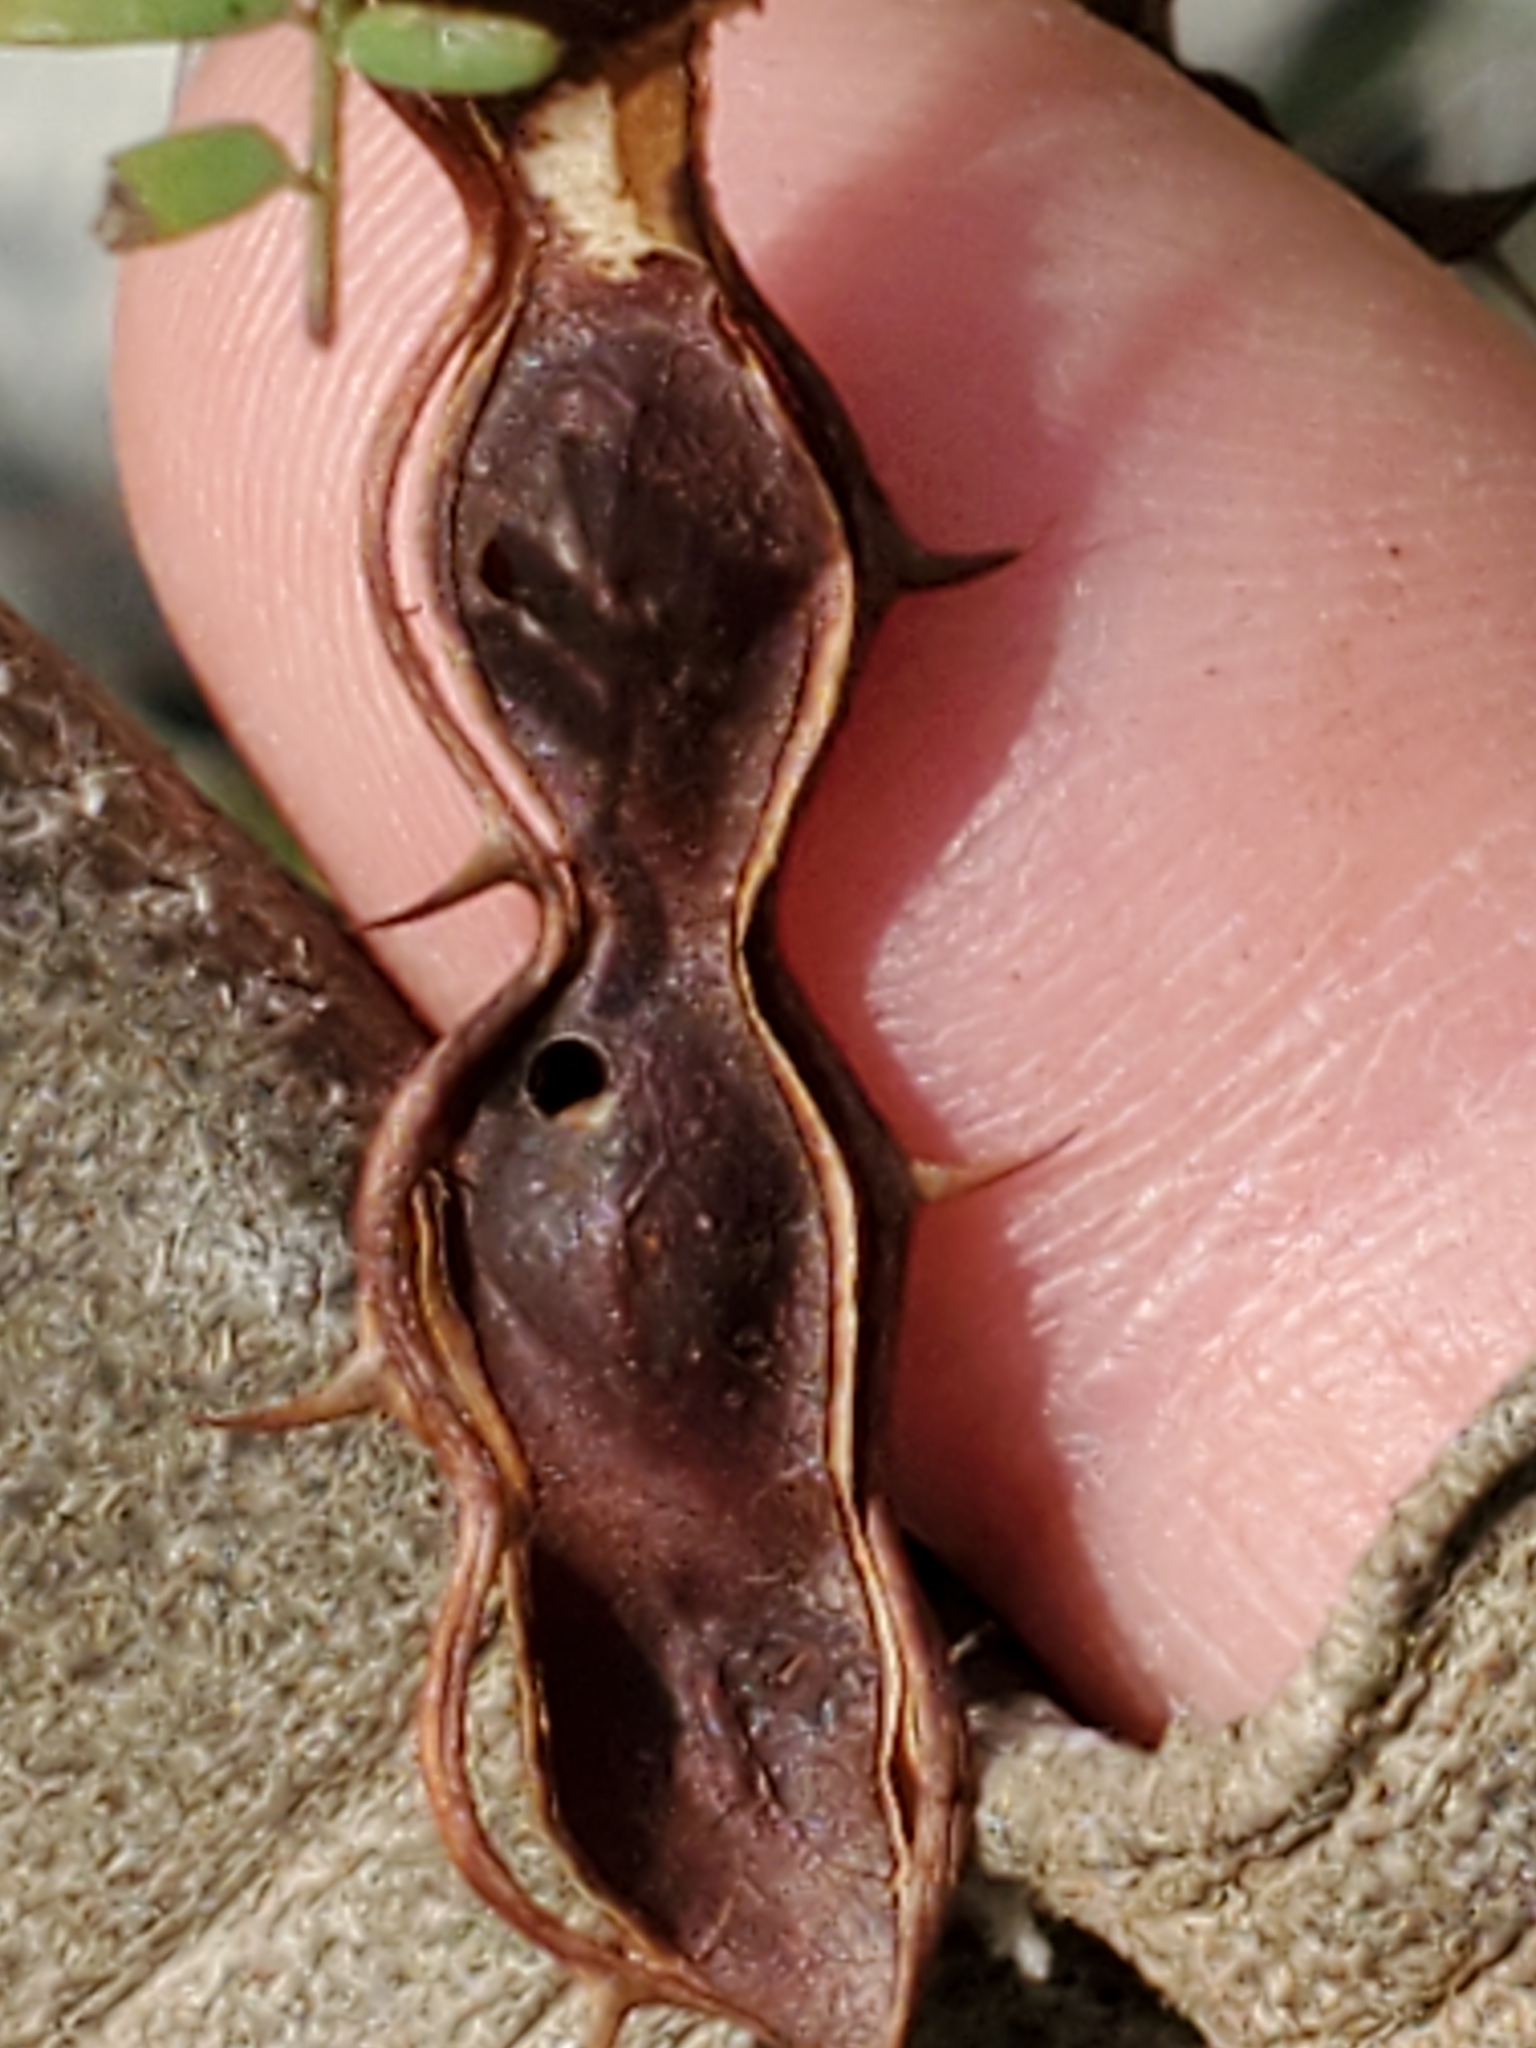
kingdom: Plantae
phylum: Tracheophyta
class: Magnoliopsida
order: Fabales
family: Fabaceae
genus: Mimosa
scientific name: Mimosa texana
